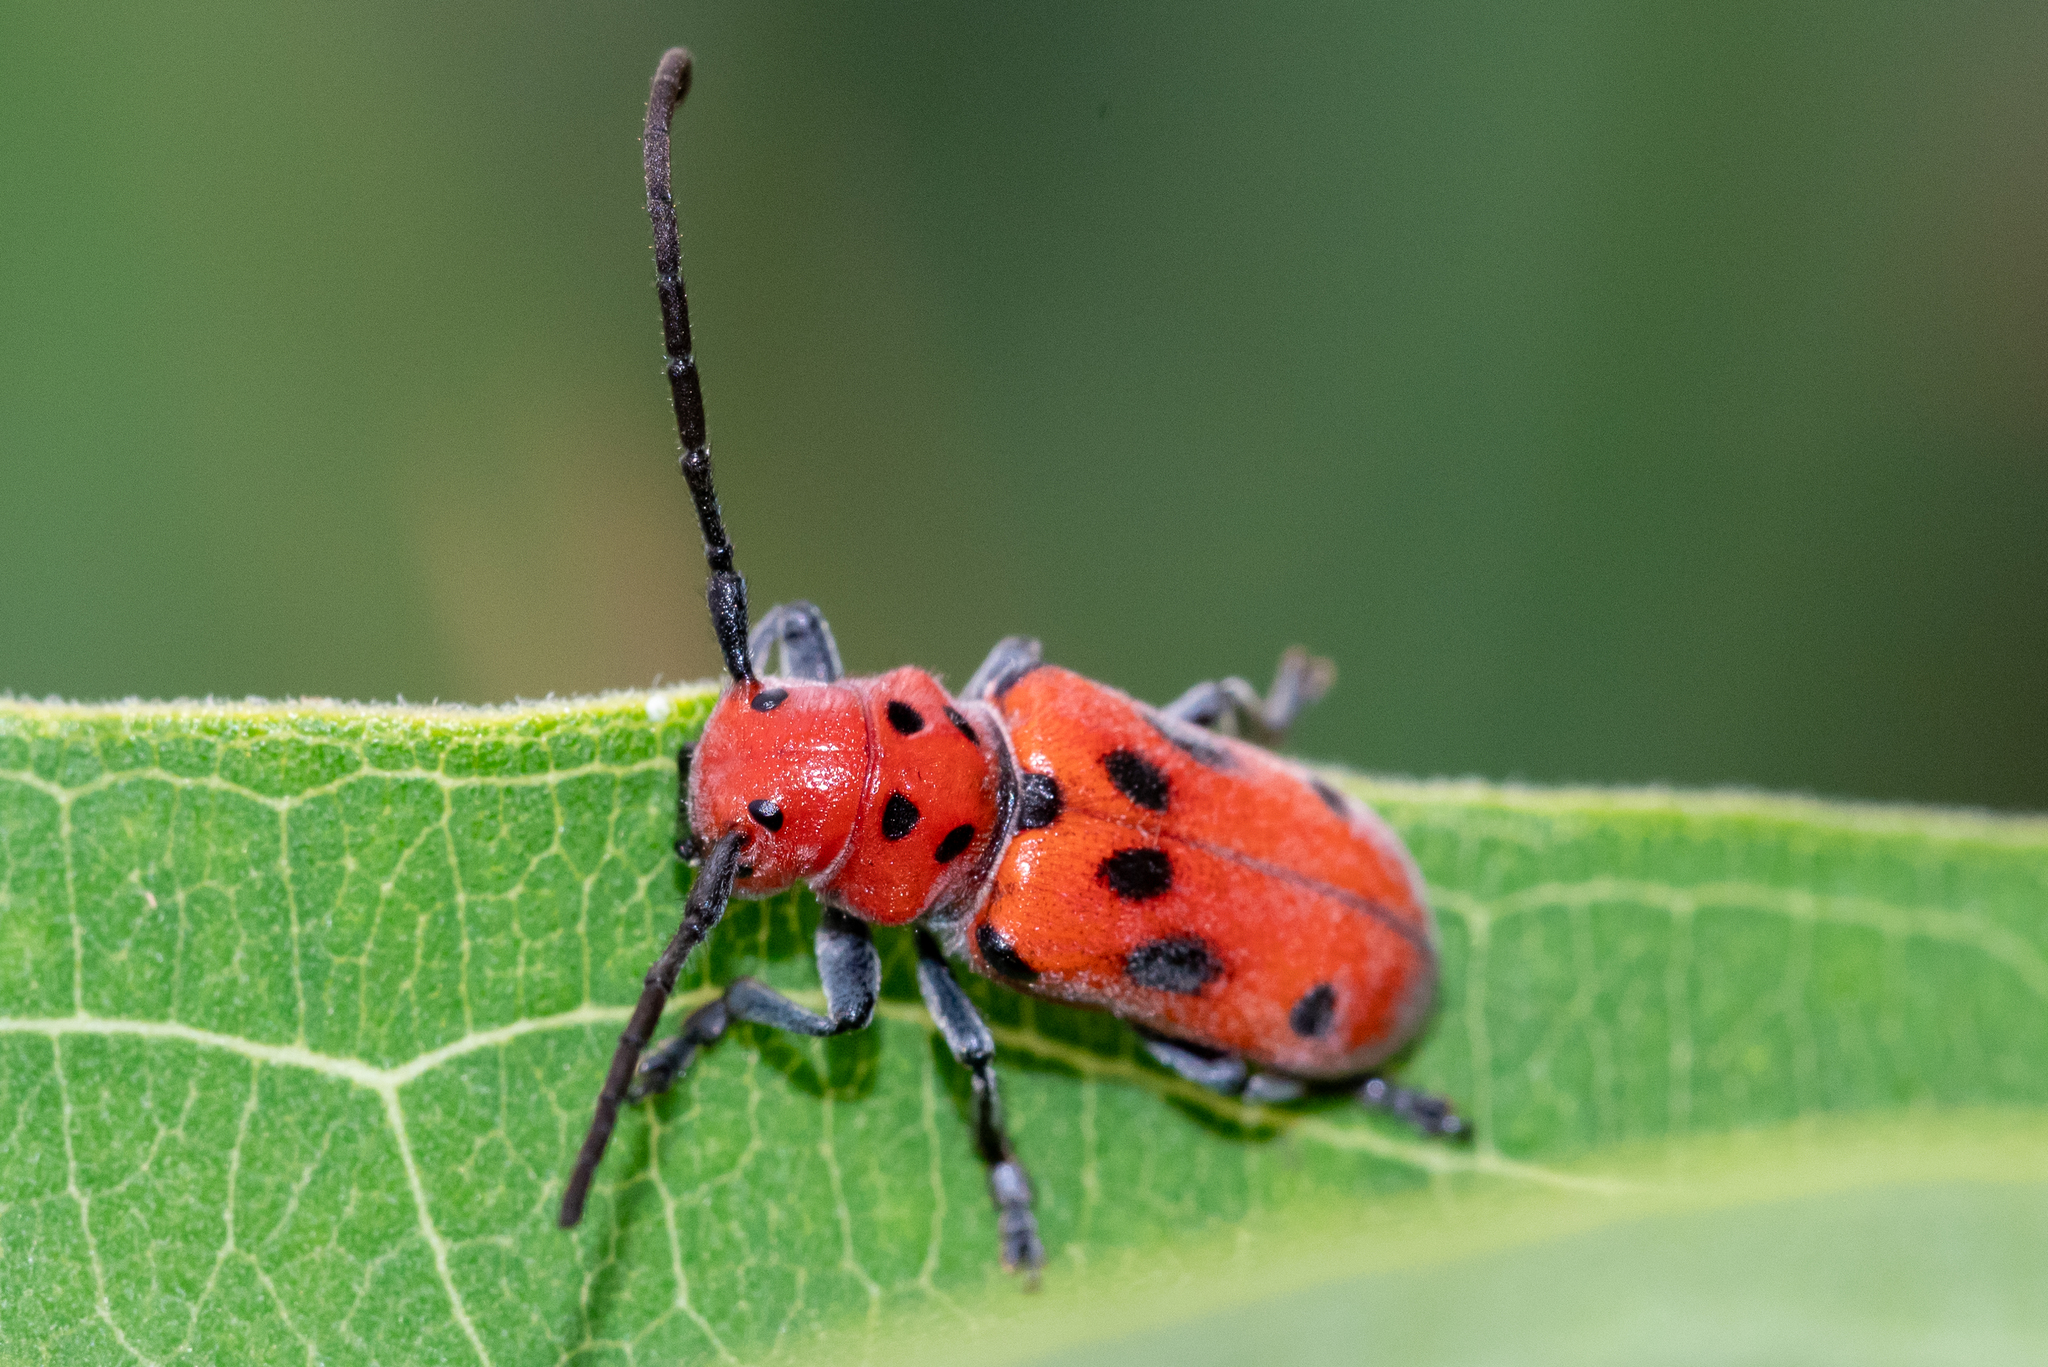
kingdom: Animalia
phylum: Arthropoda
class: Insecta
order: Coleoptera
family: Cerambycidae
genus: Tetraopes
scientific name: Tetraopes tetrophthalmus
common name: Red milkweed beetle
